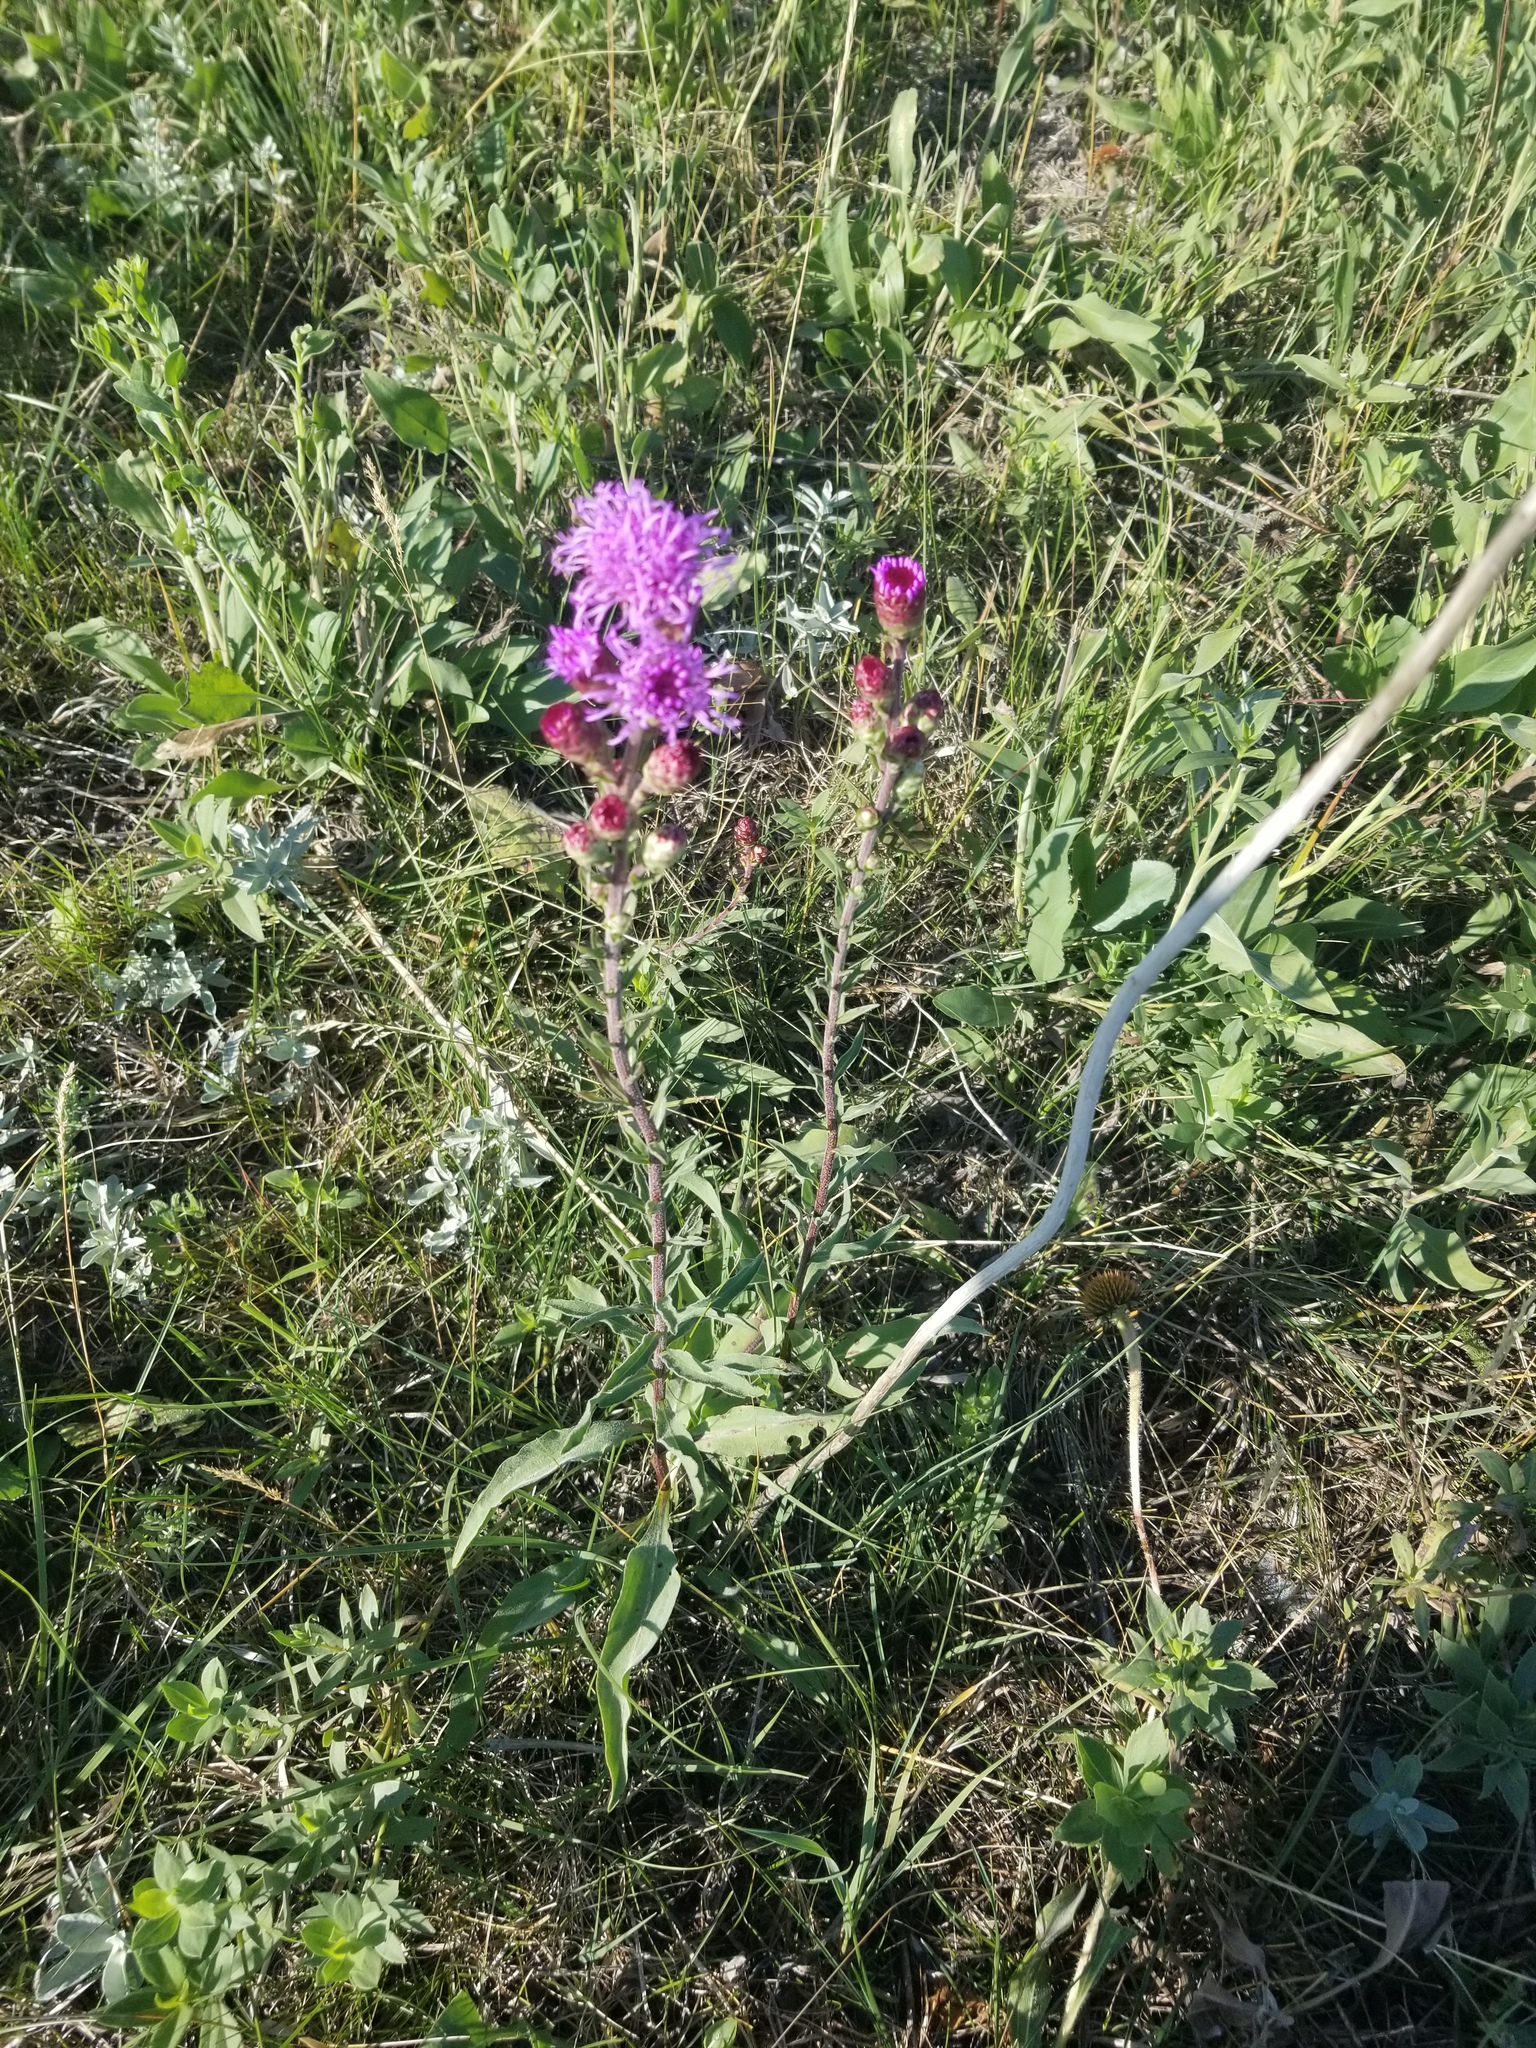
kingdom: Plantae
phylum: Tracheophyta
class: Magnoliopsida
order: Asterales
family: Asteraceae
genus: Liatris
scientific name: Liatris ligulistylis
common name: Northern plains gayfeather
